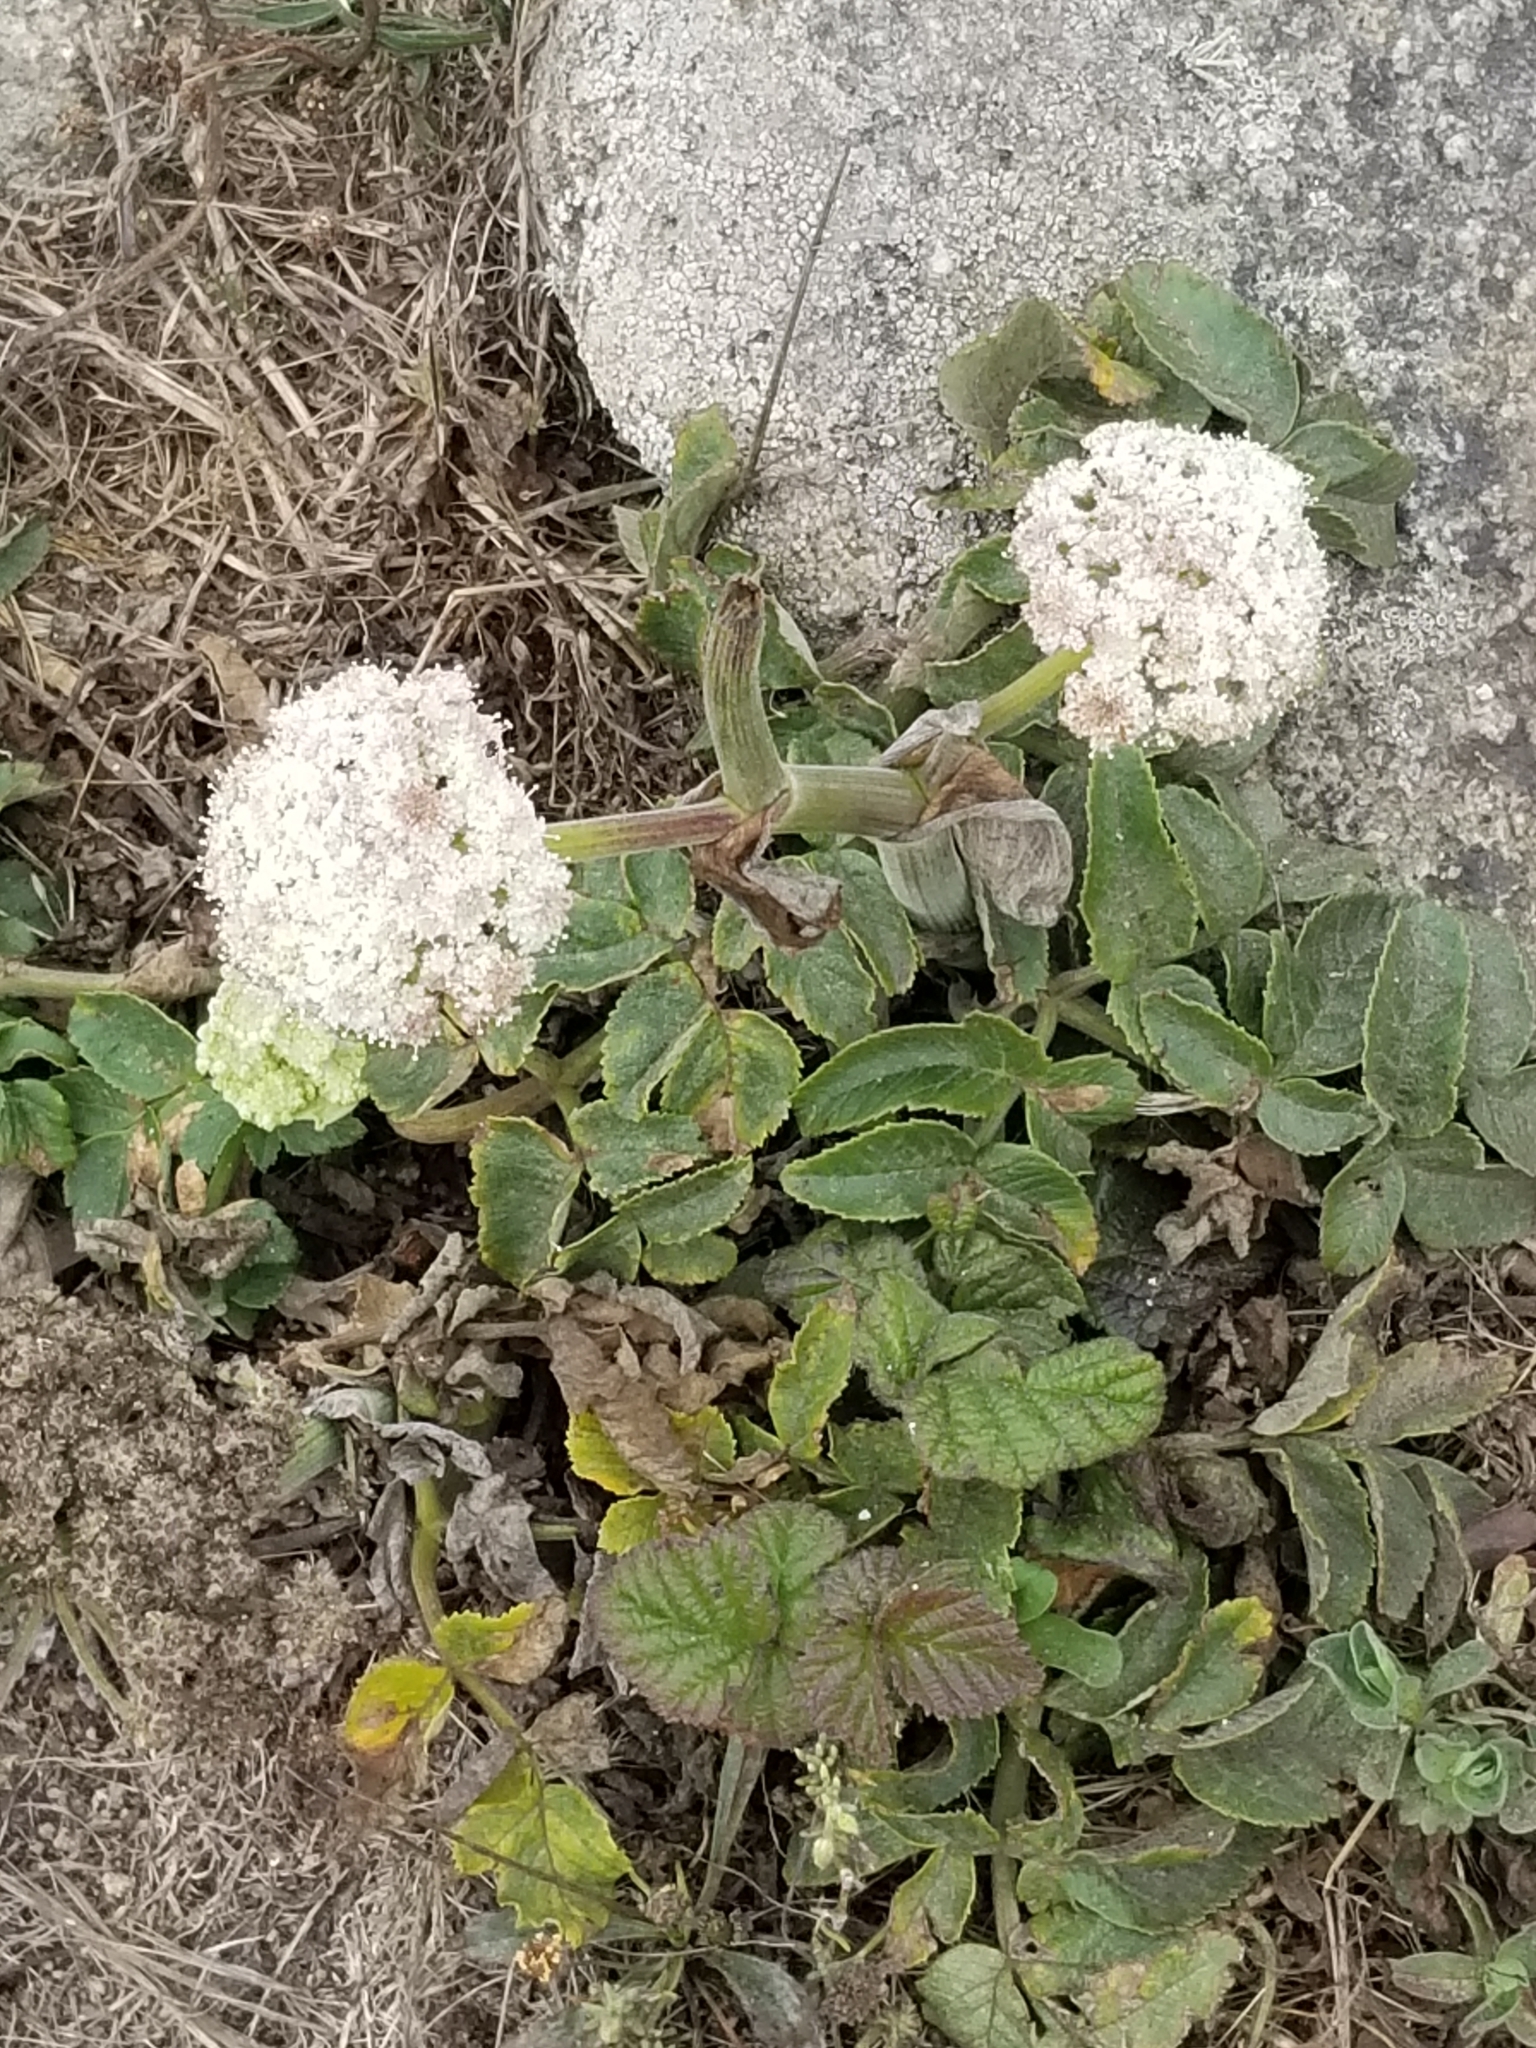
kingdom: Plantae
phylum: Tracheophyta
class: Magnoliopsida
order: Apiales
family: Apiaceae
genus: Angelica
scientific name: Angelica hendersonii
